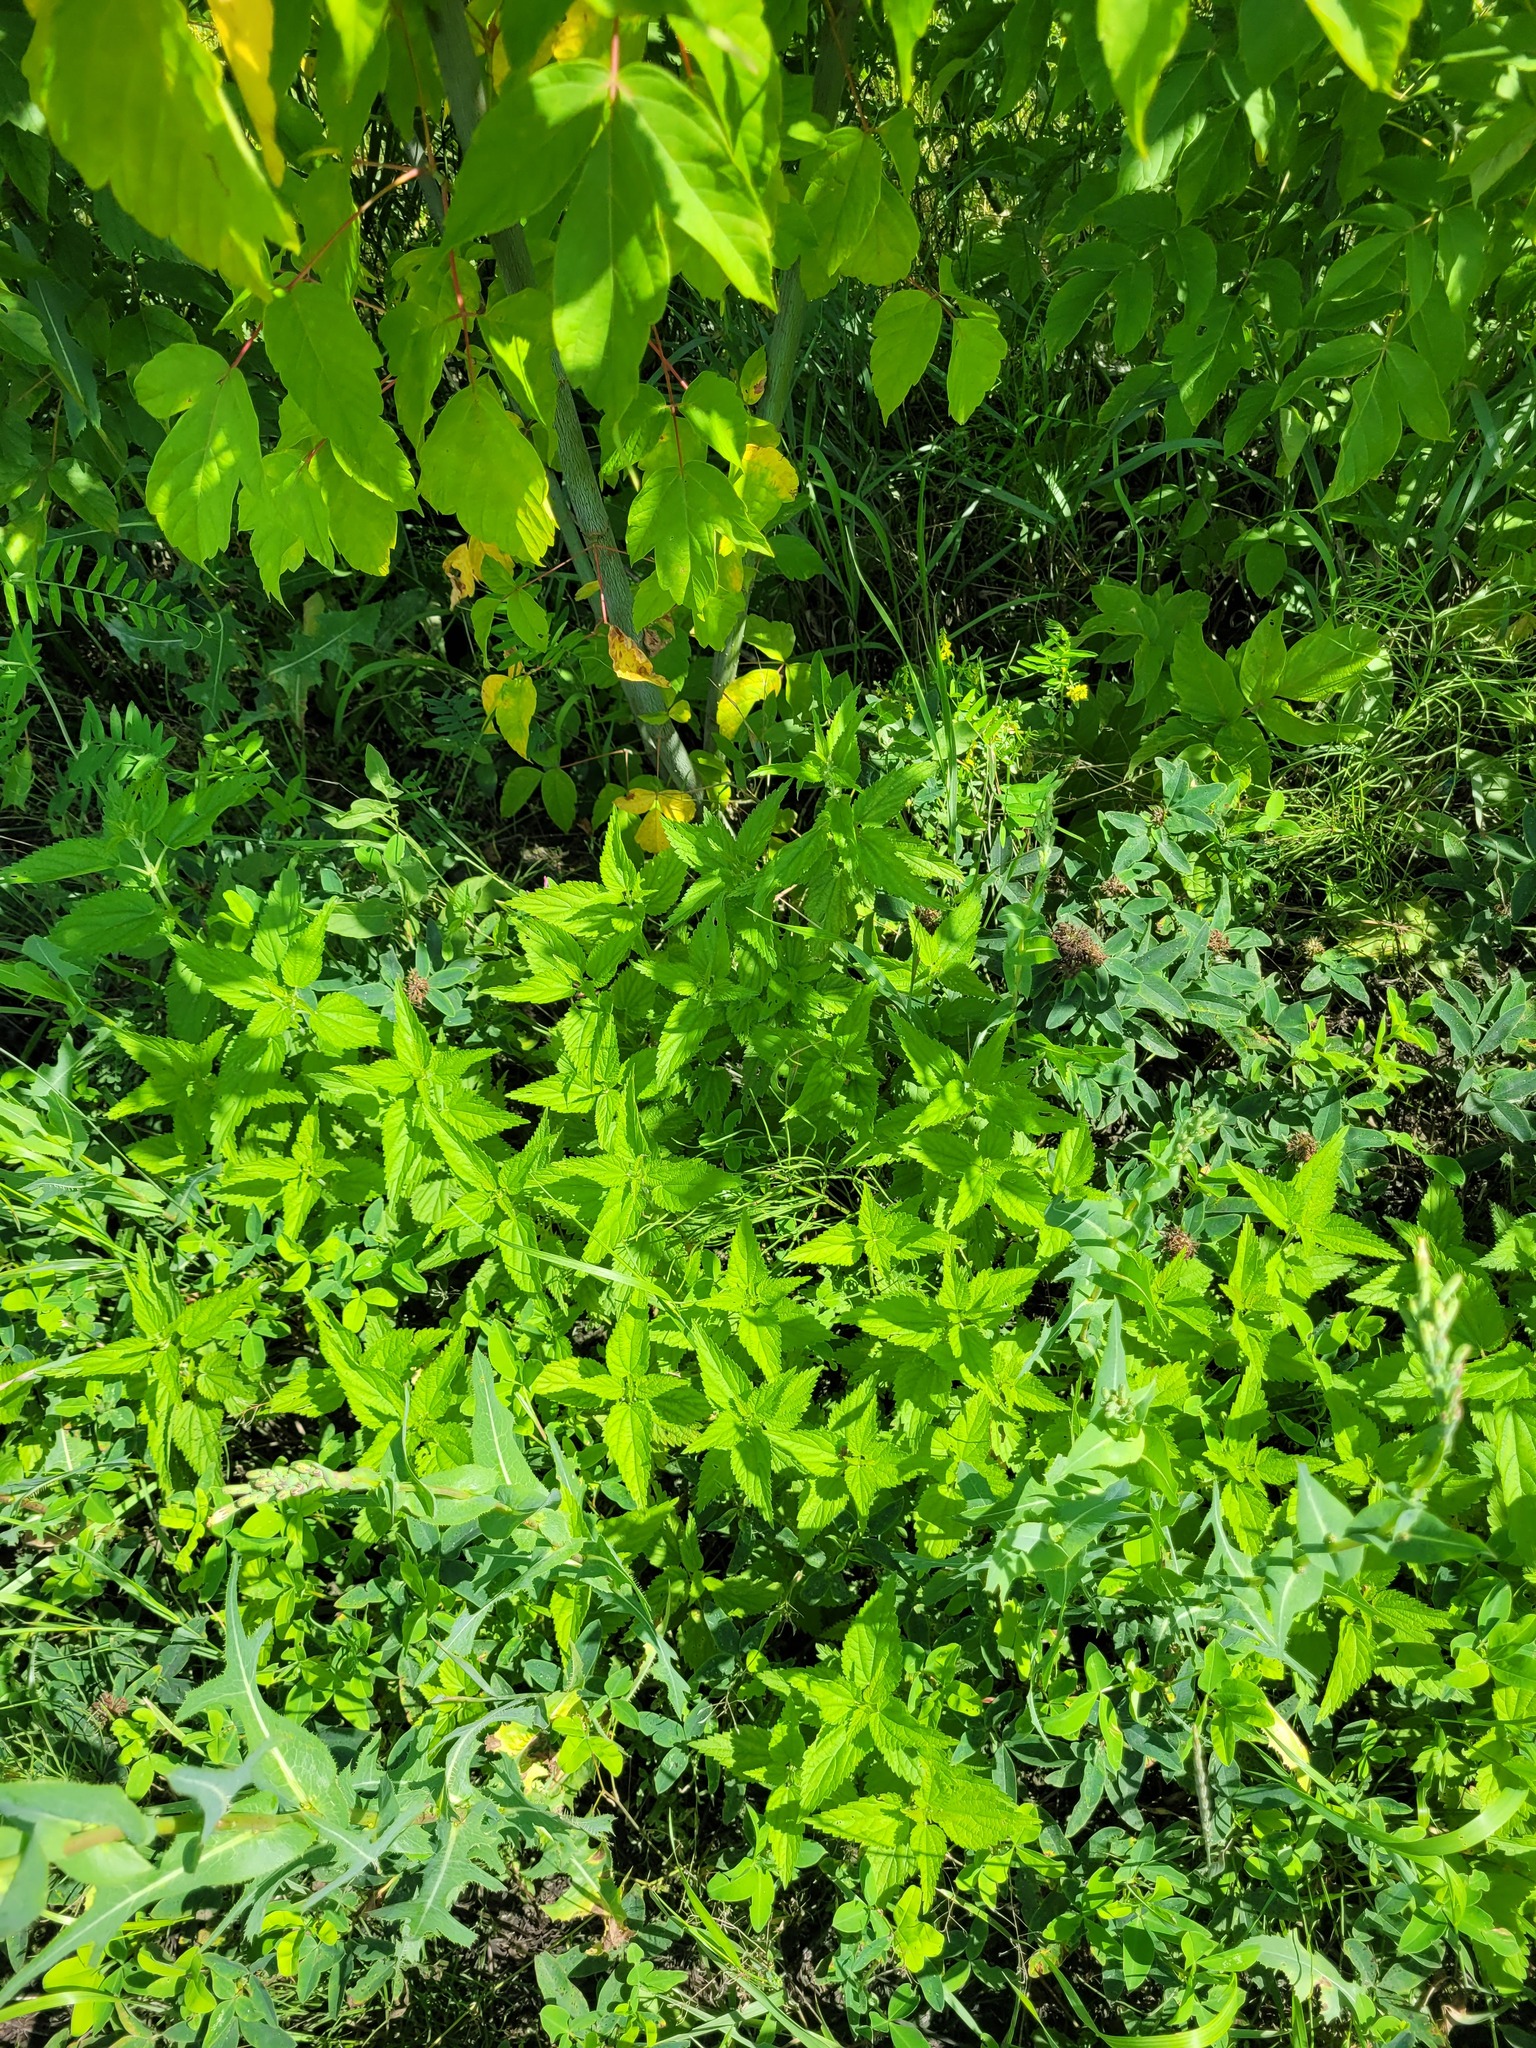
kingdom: Plantae
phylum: Tracheophyta
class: Magnoliopsida
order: Rosales
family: Urticaceae
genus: Urtica
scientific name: Urtica dioica
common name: Common nettle
